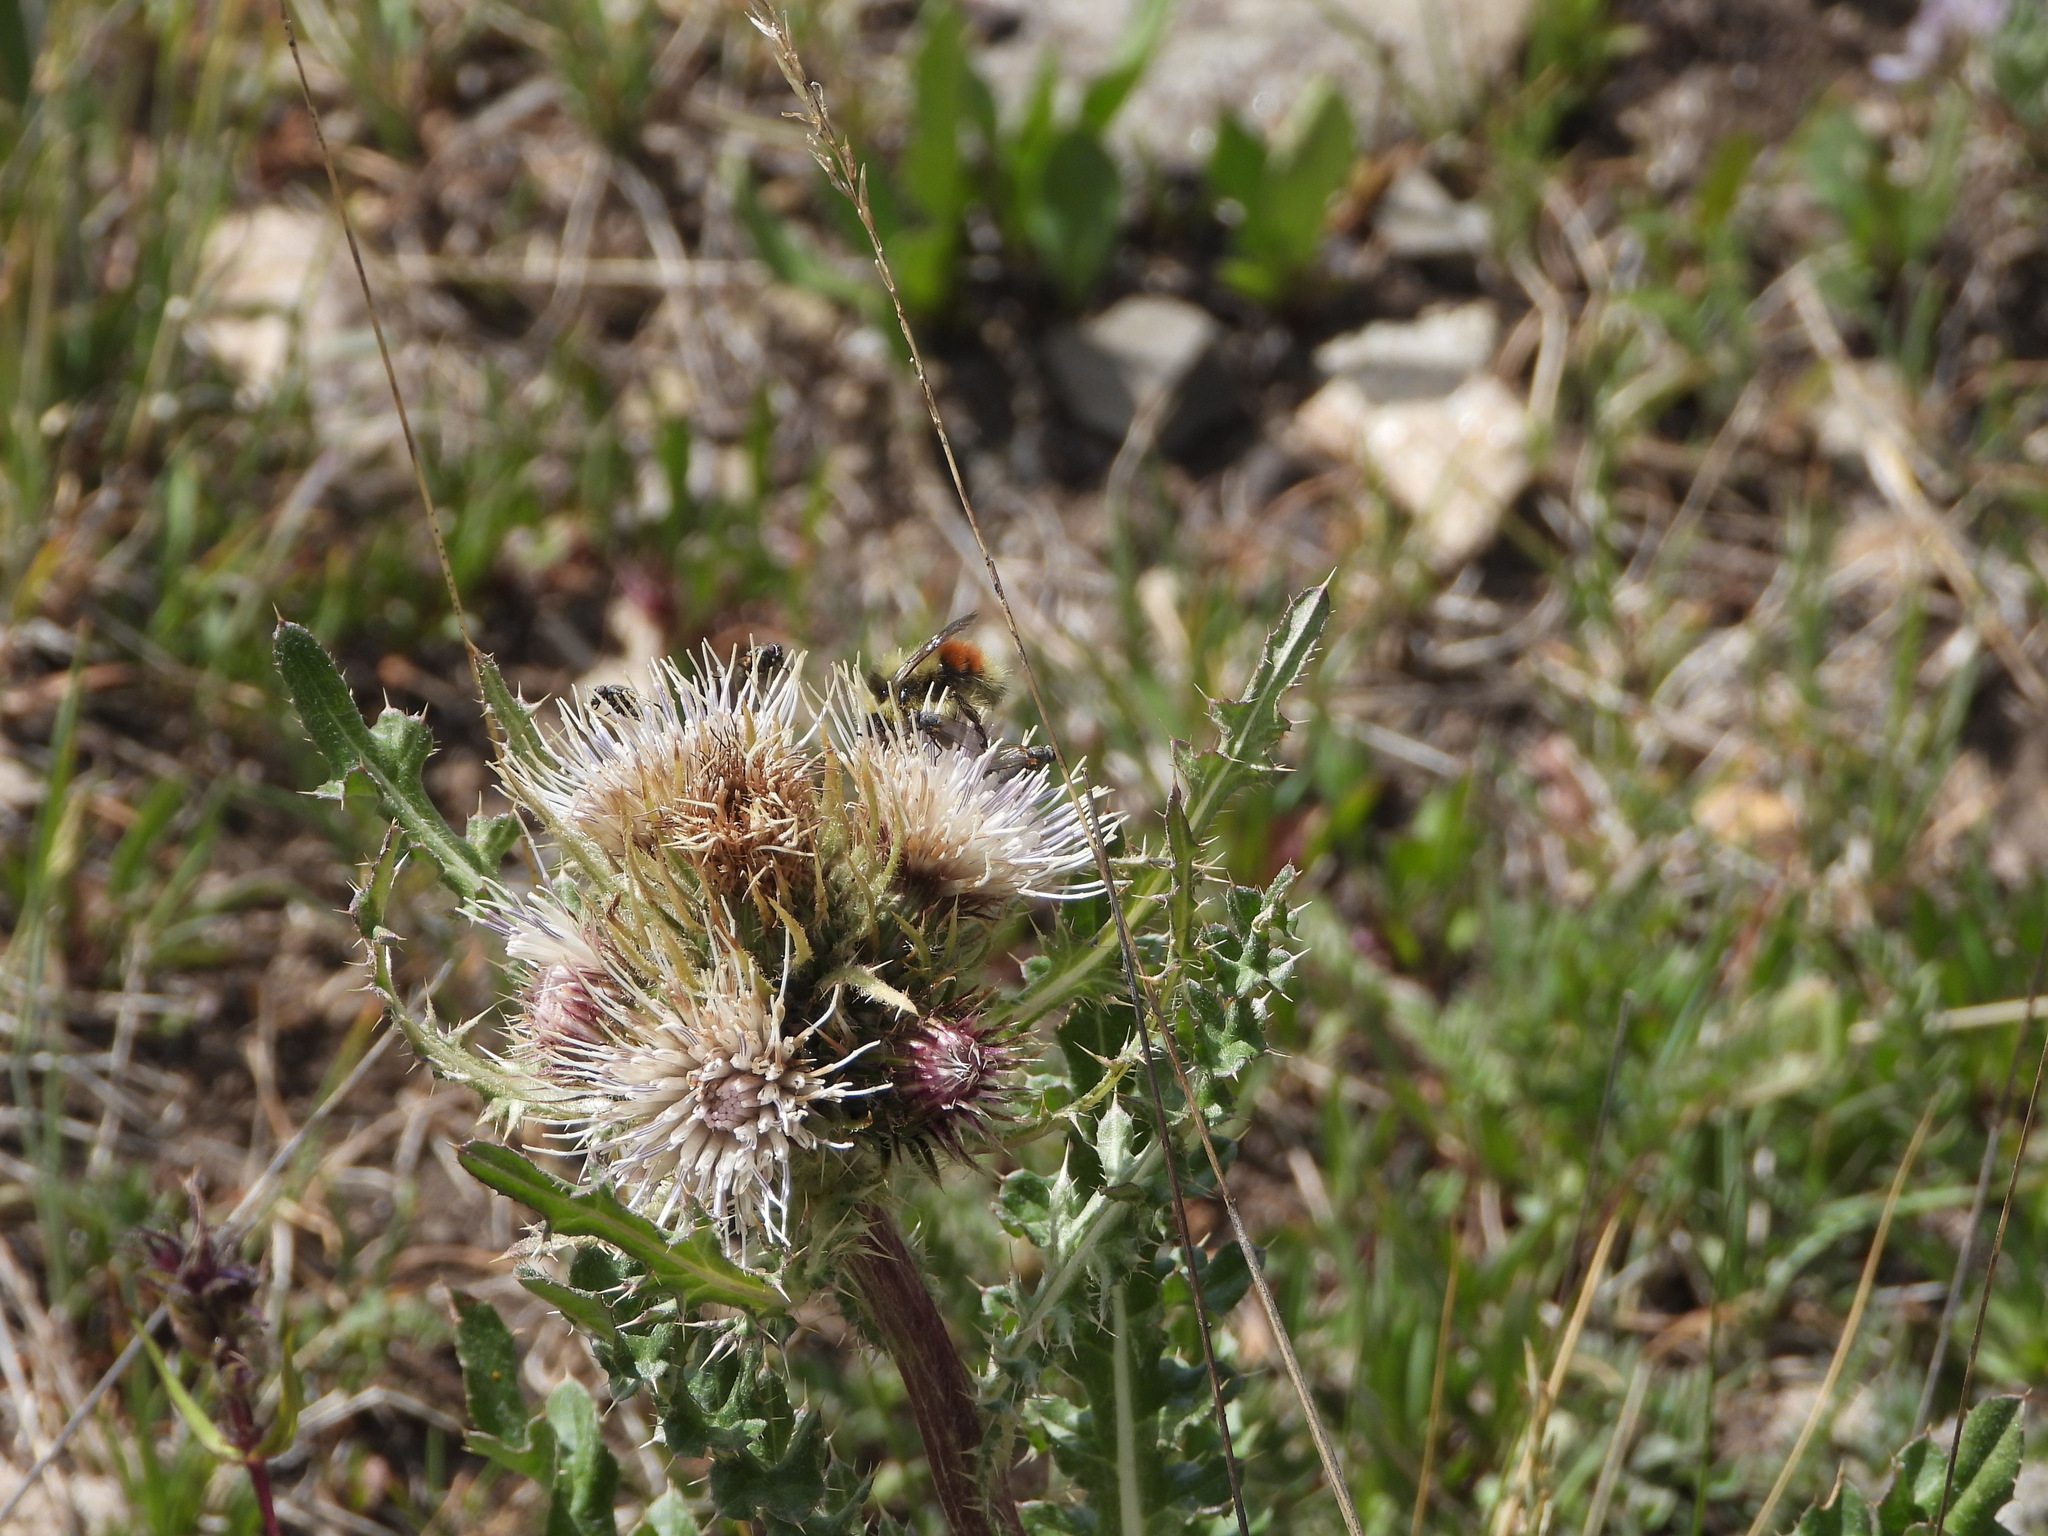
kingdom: Plantae
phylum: Tracheophyta
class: Magnoliopsida
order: Asterales
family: Asteraceae
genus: Cirsium
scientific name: Cirsium griseum
